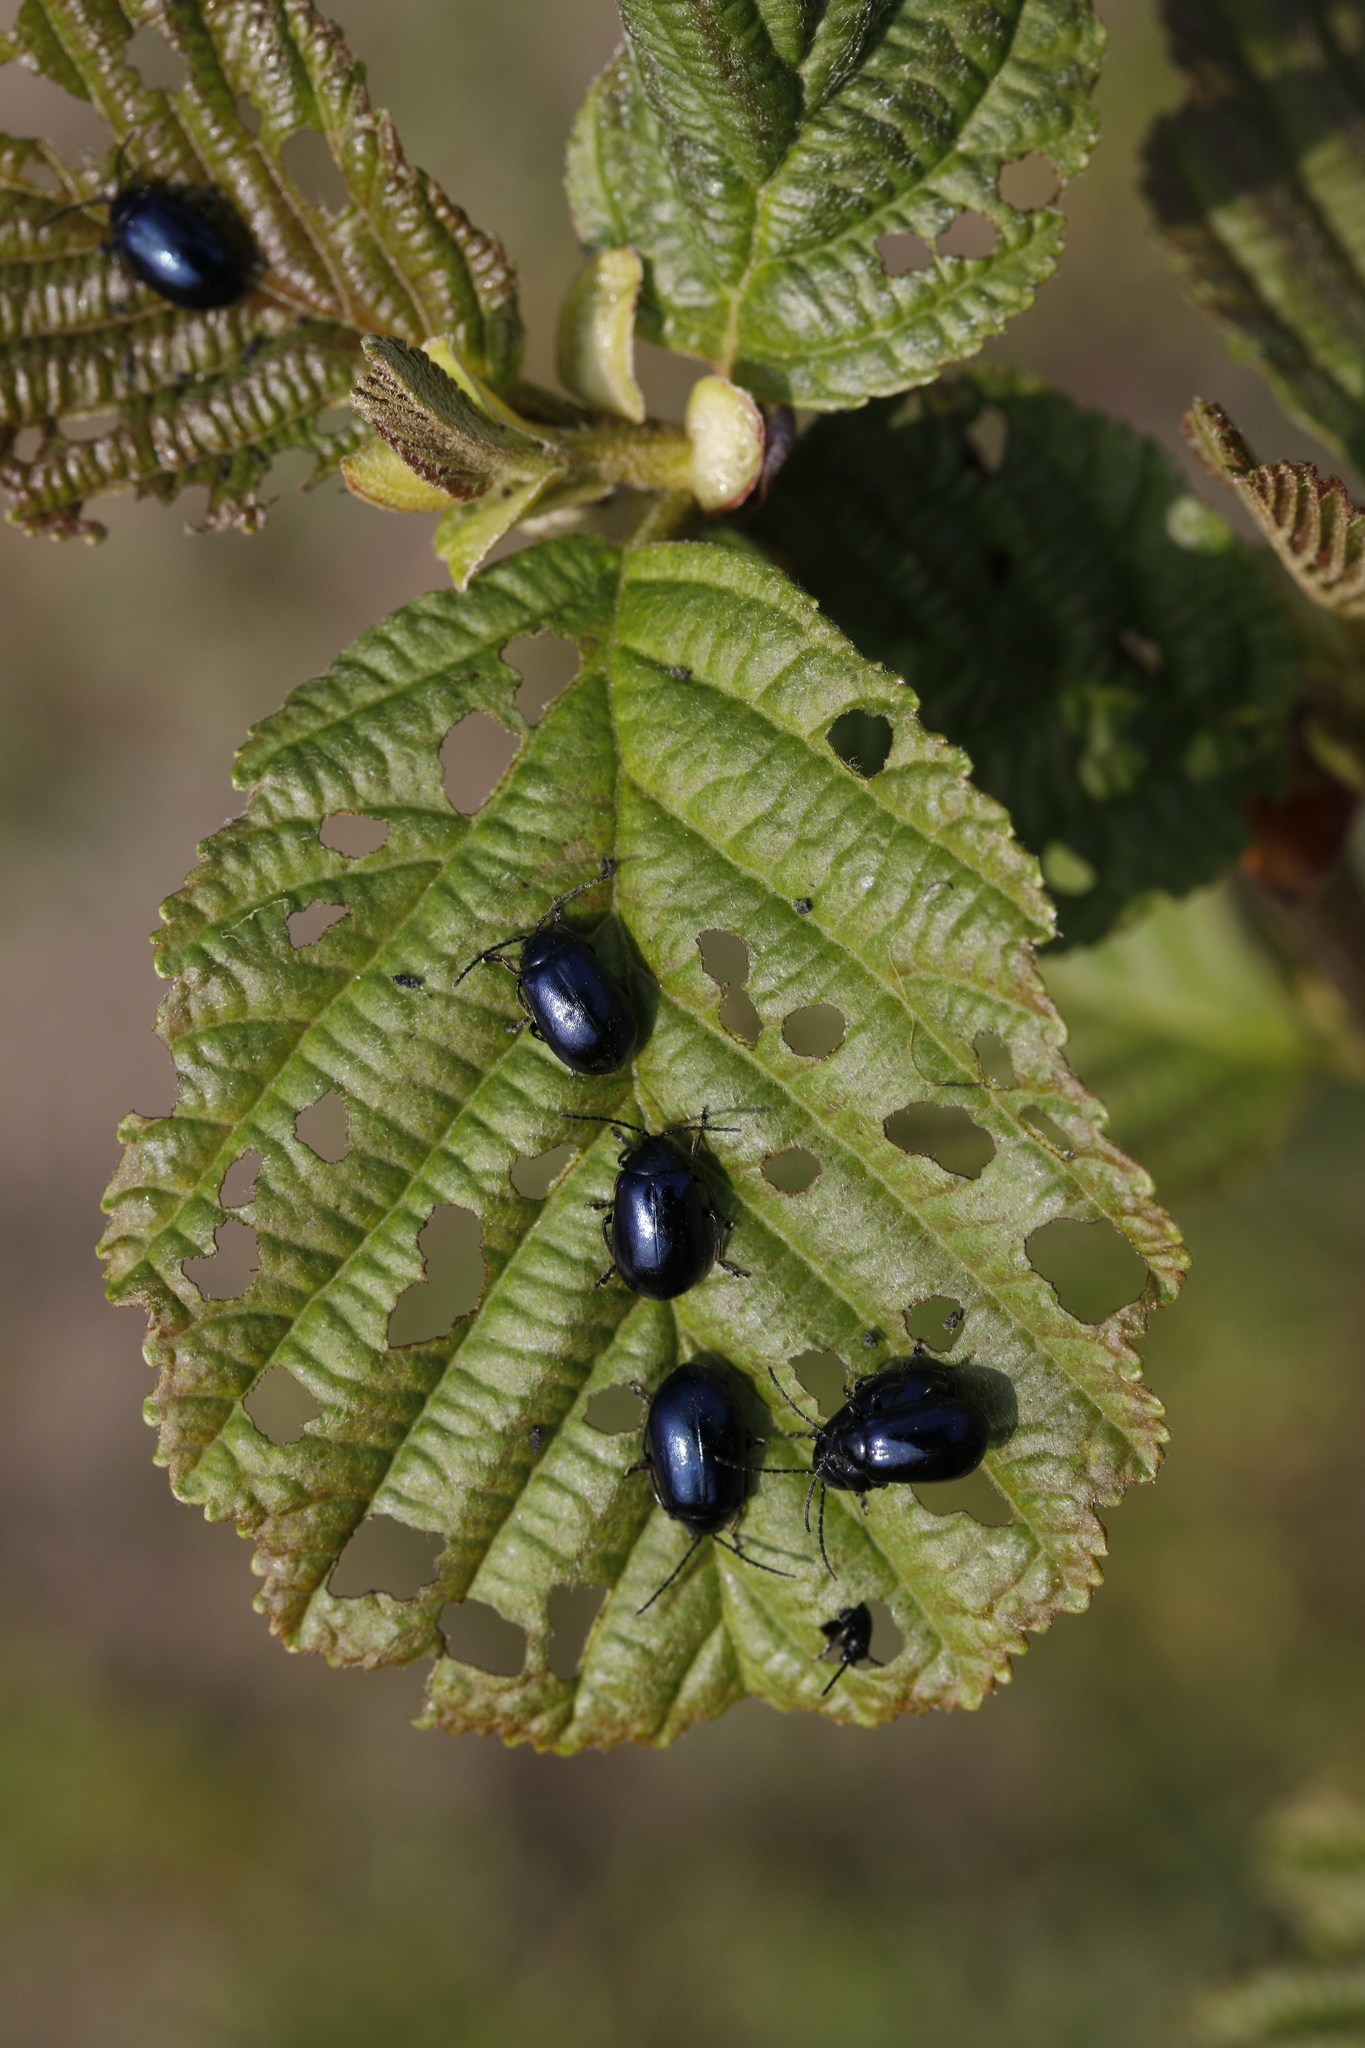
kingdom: Animalia
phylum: Arthropoda
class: Insecta
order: Coleoptera
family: Chrysomelidae
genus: Agelastica
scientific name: Agelastica alni
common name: Alder leaf beetle
